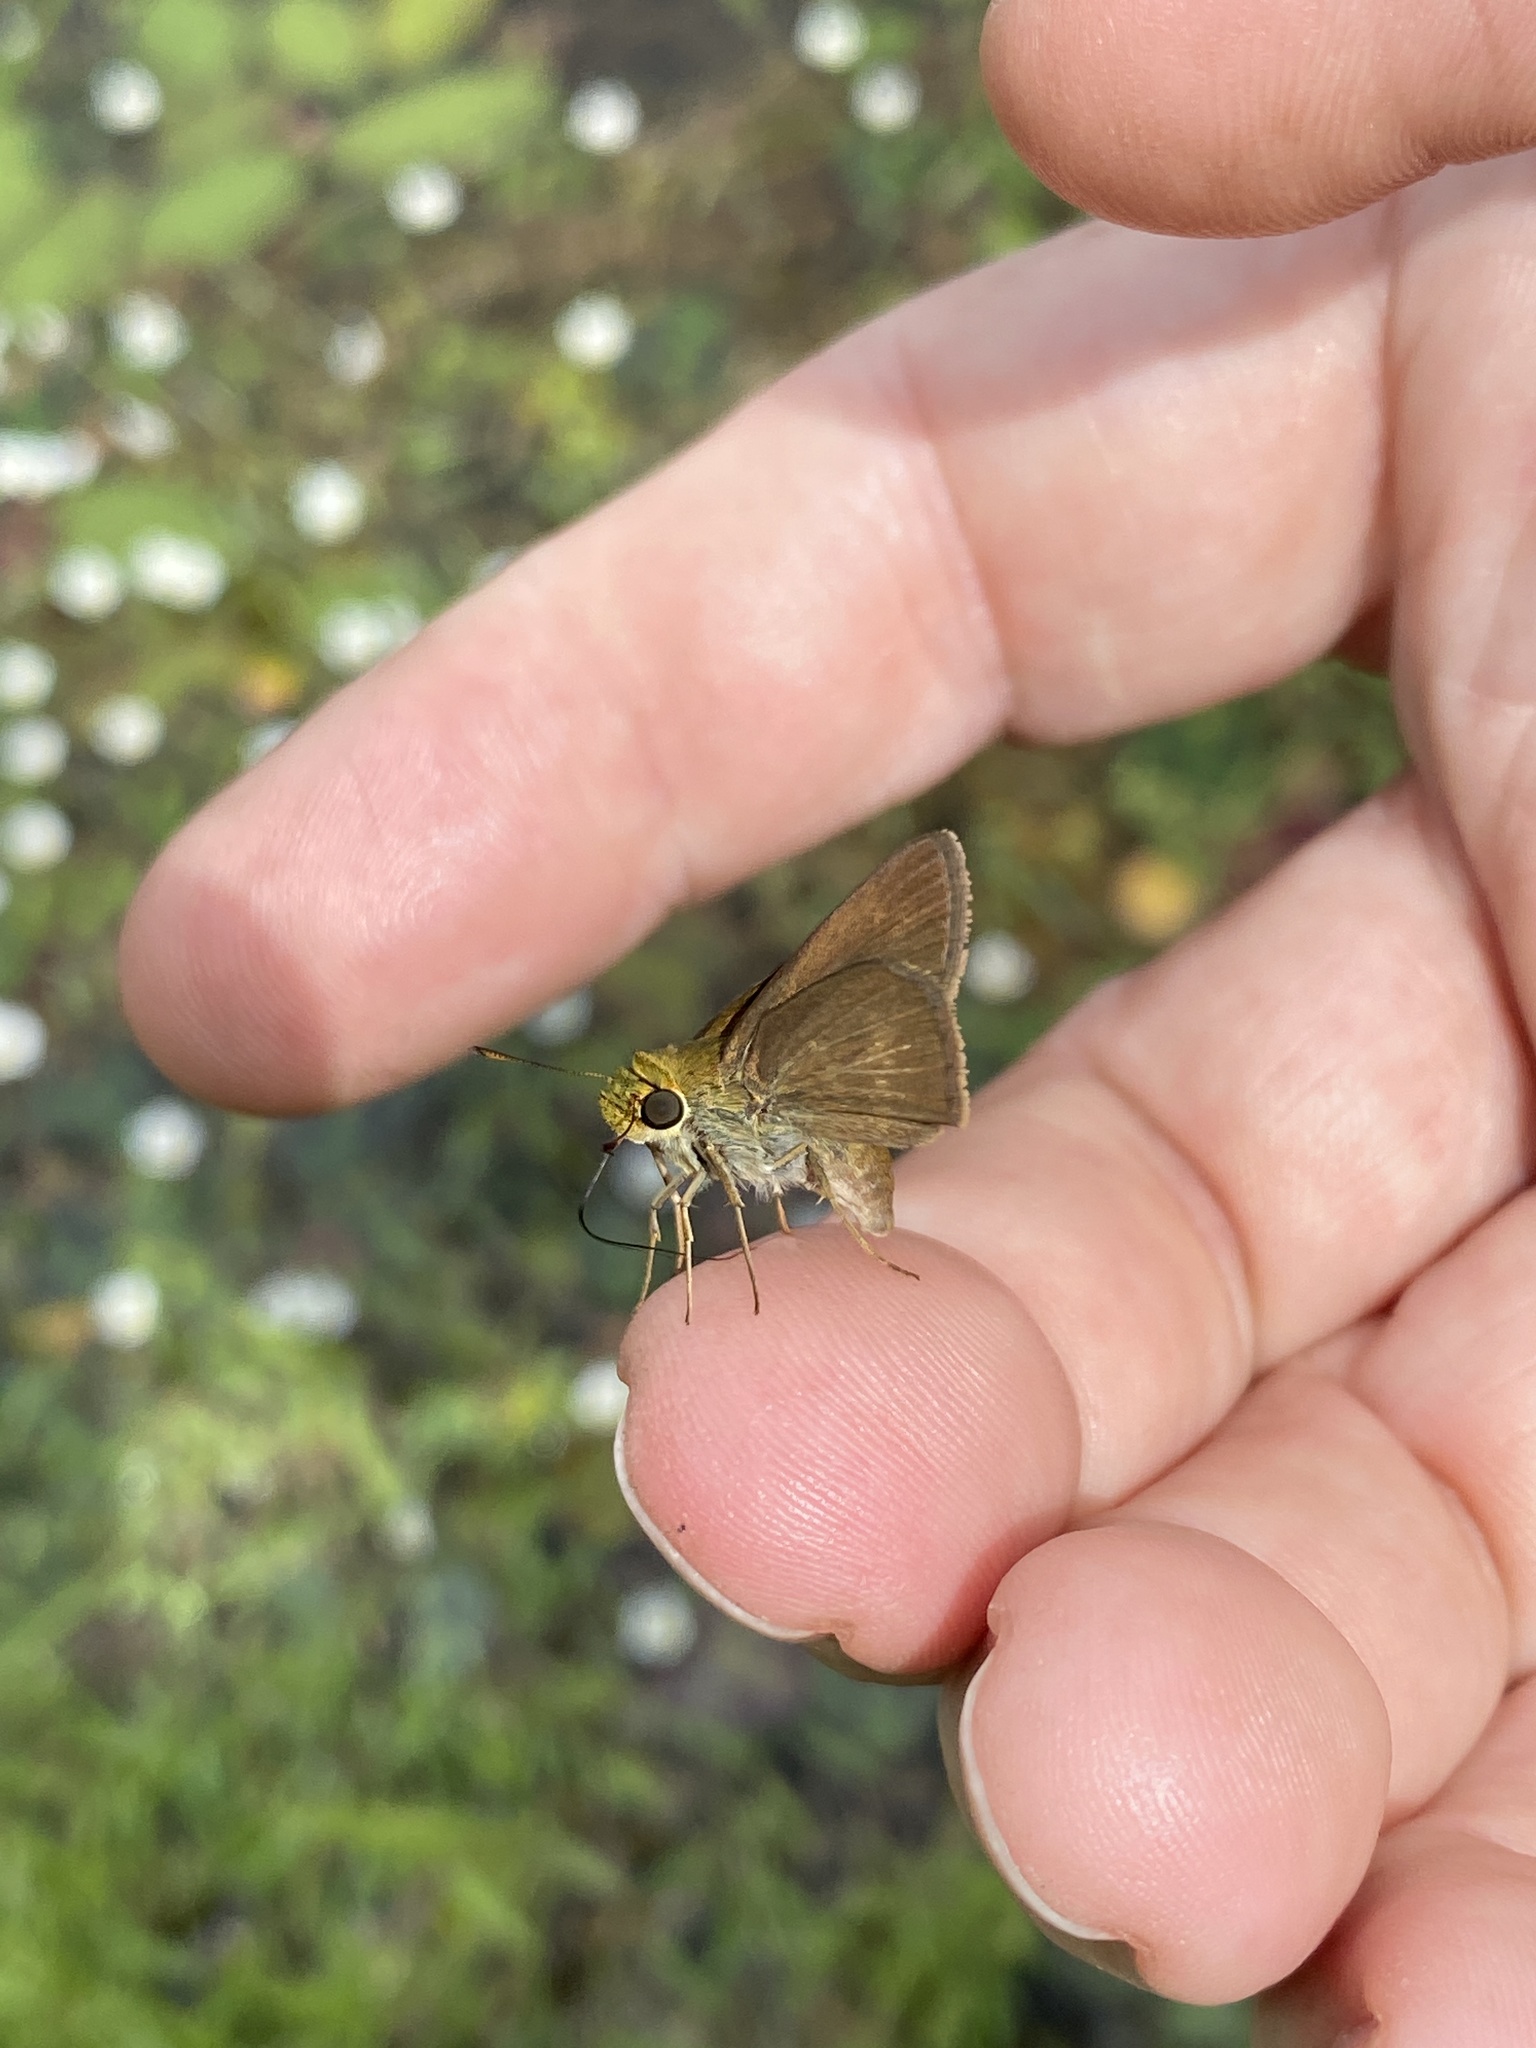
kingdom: Animalia
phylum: Arthropoda
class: Insecta
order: Lepidoptera
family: Hesperiidae
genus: Euphyes
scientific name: Euphyes vestris
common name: Dun skipper
